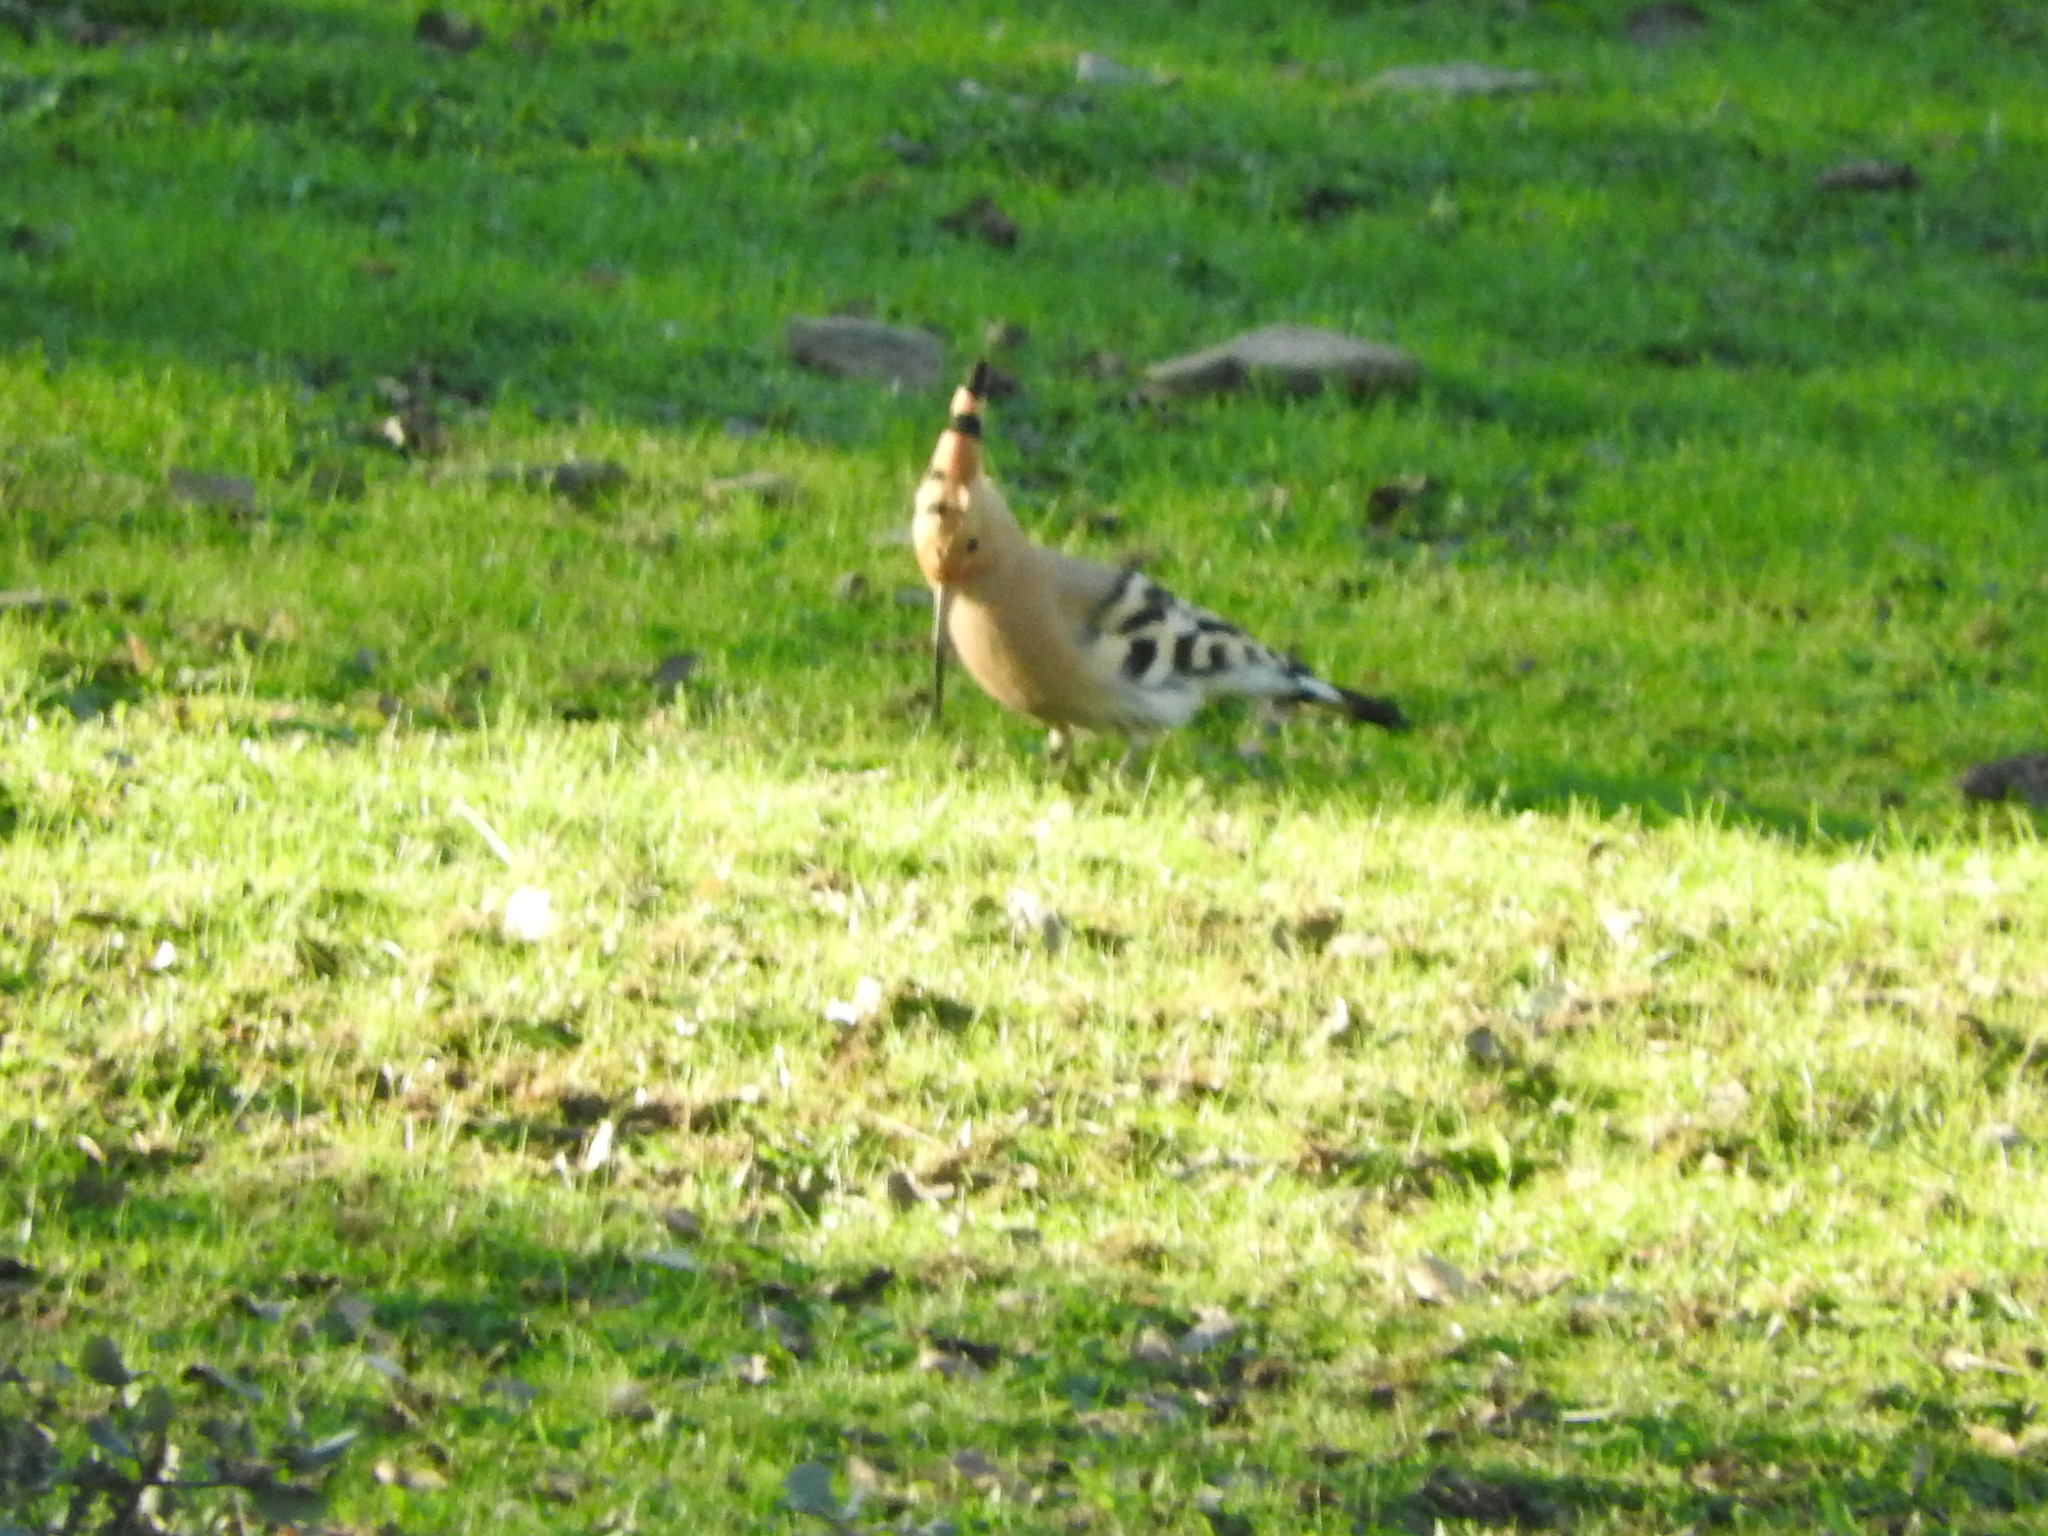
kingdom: Animalia
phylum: Chordata
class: Aves
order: Bucerotiformes
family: Upupidae
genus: Upupa
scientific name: Upupa epops
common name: Eurasian hoopoe
